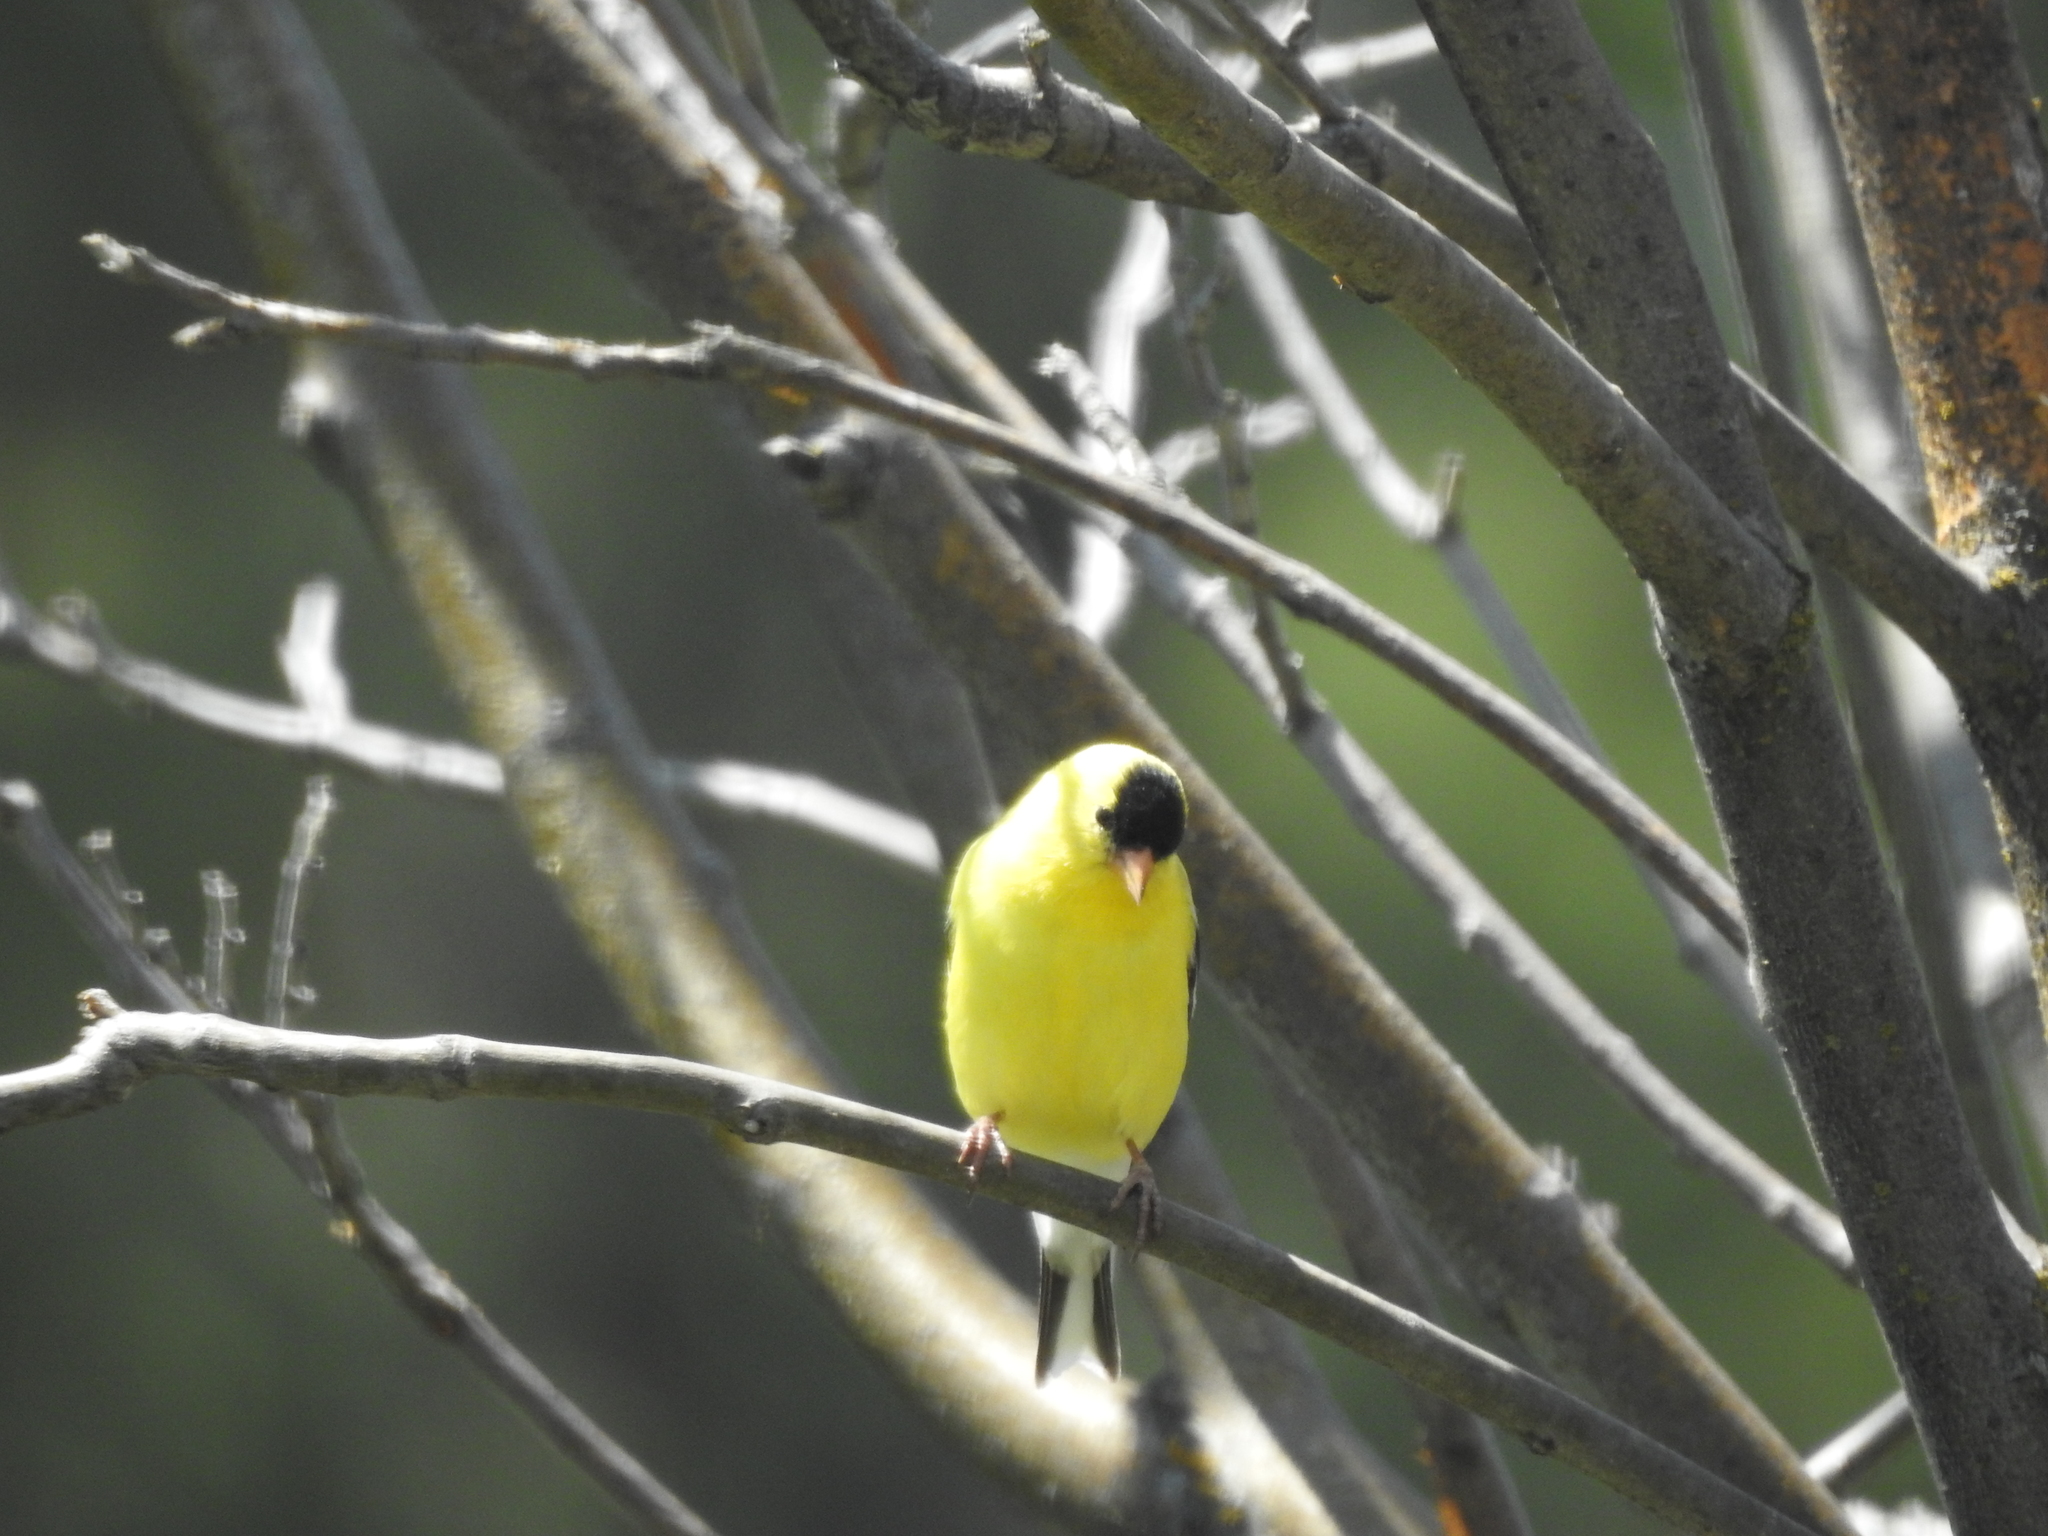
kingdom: Animalia
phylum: Chordata
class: Aves
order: Passeriformes
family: Fringillidae
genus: Spinus
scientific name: Spinus tristis
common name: American goldfinch
